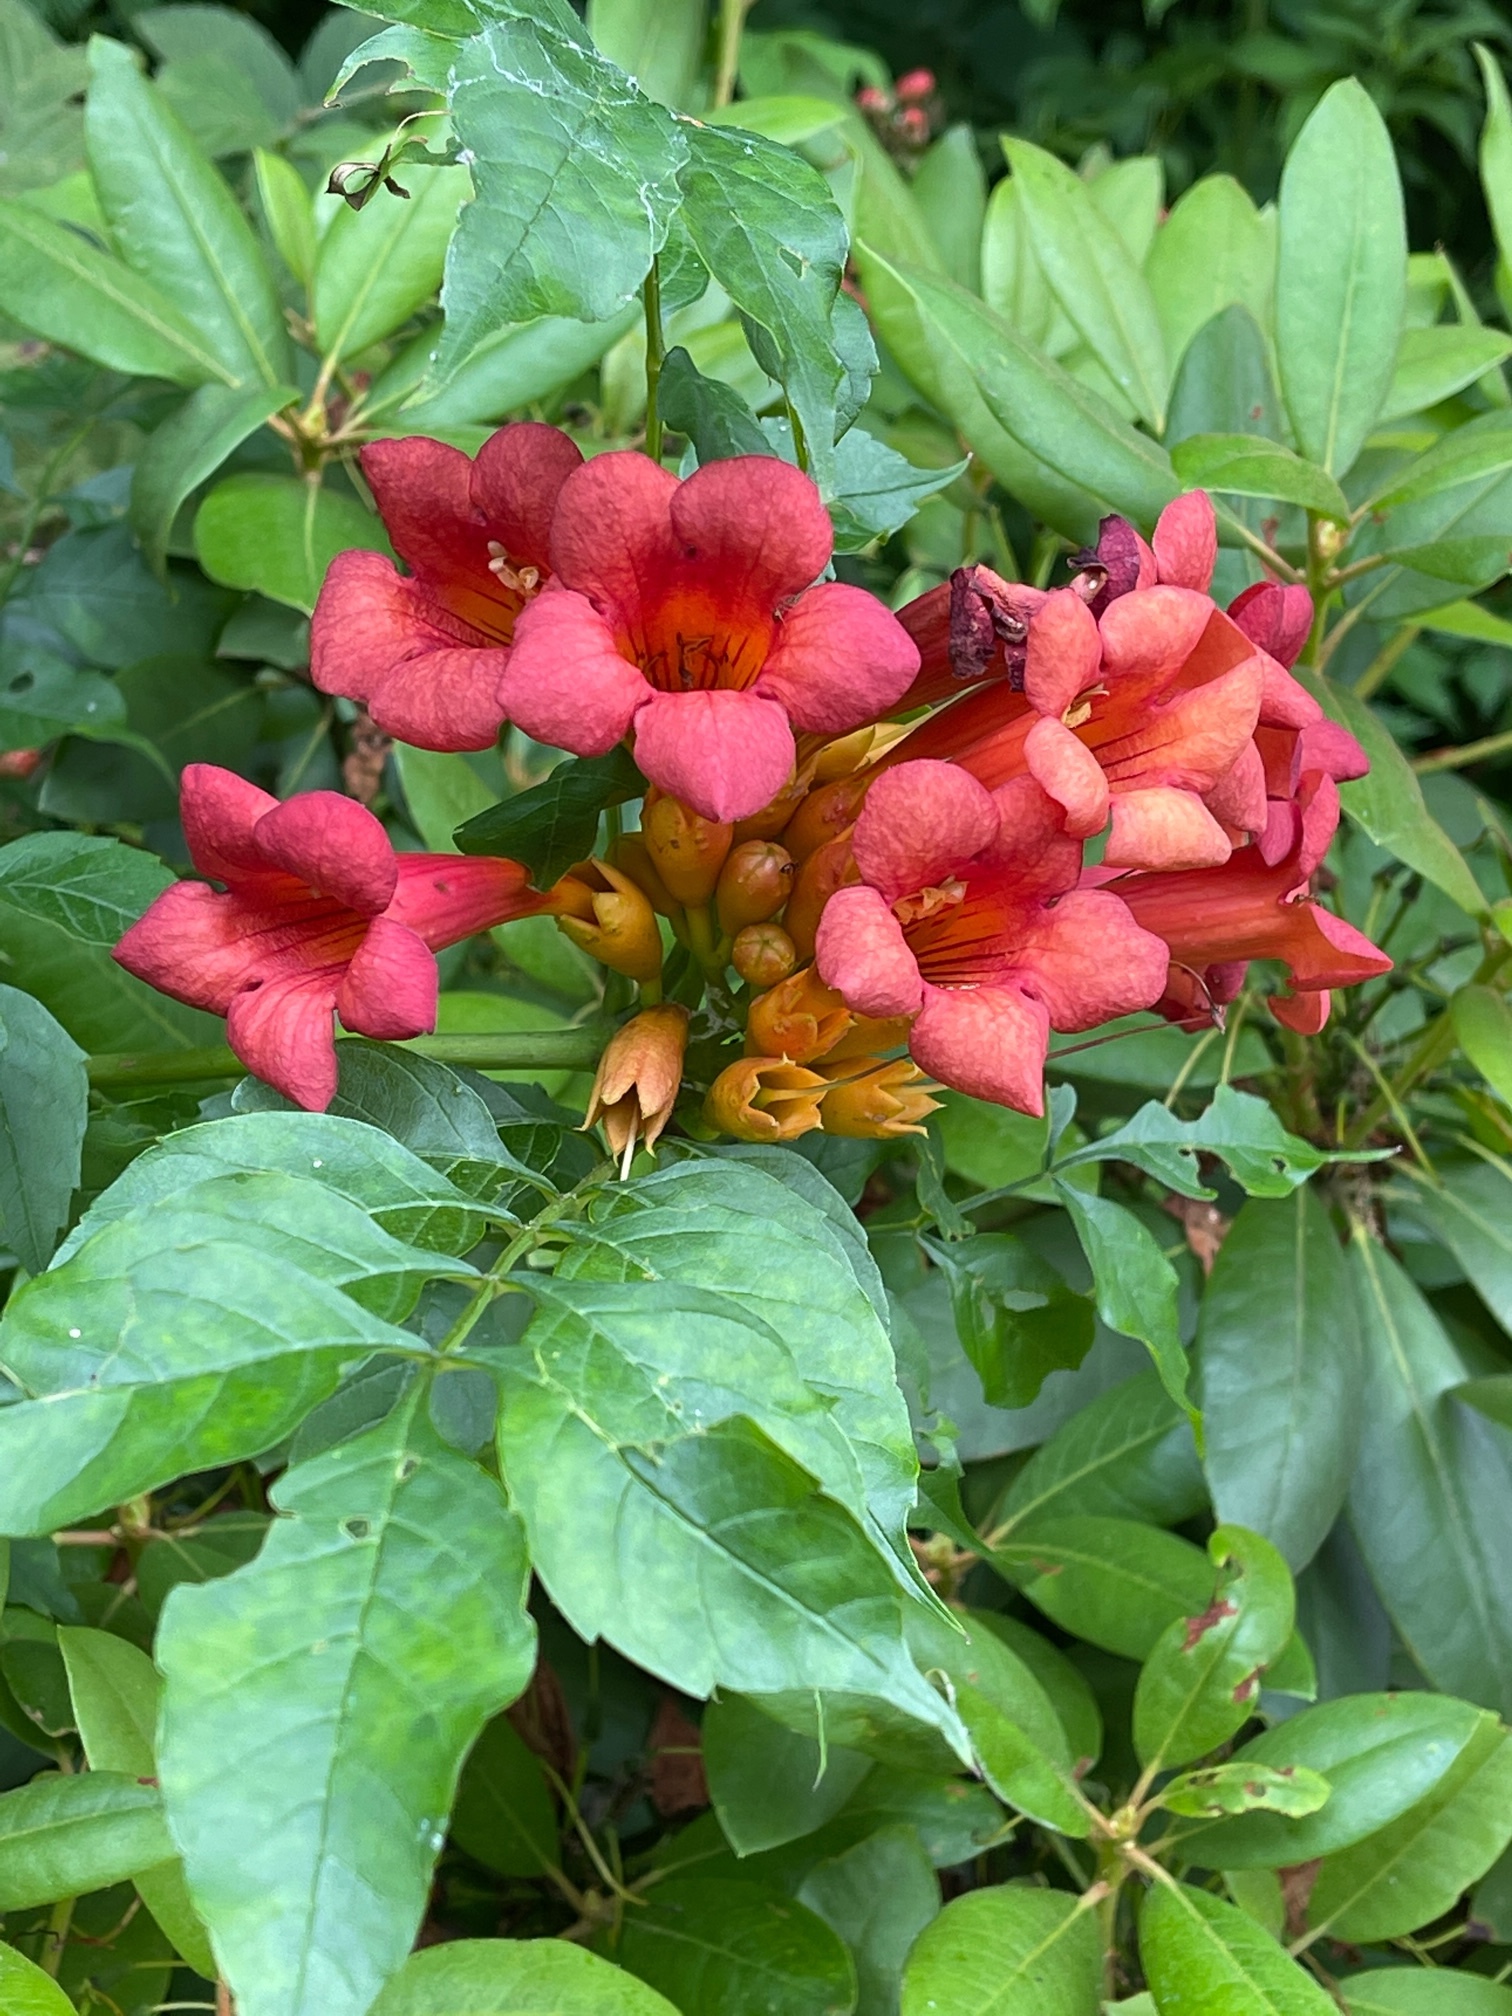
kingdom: Plantae
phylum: Tracheophyta
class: Magnoliopsida
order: Lamiales
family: Bignoniaceae
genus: Campsis
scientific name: Campsis radicans
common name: Trumpet-creeper
